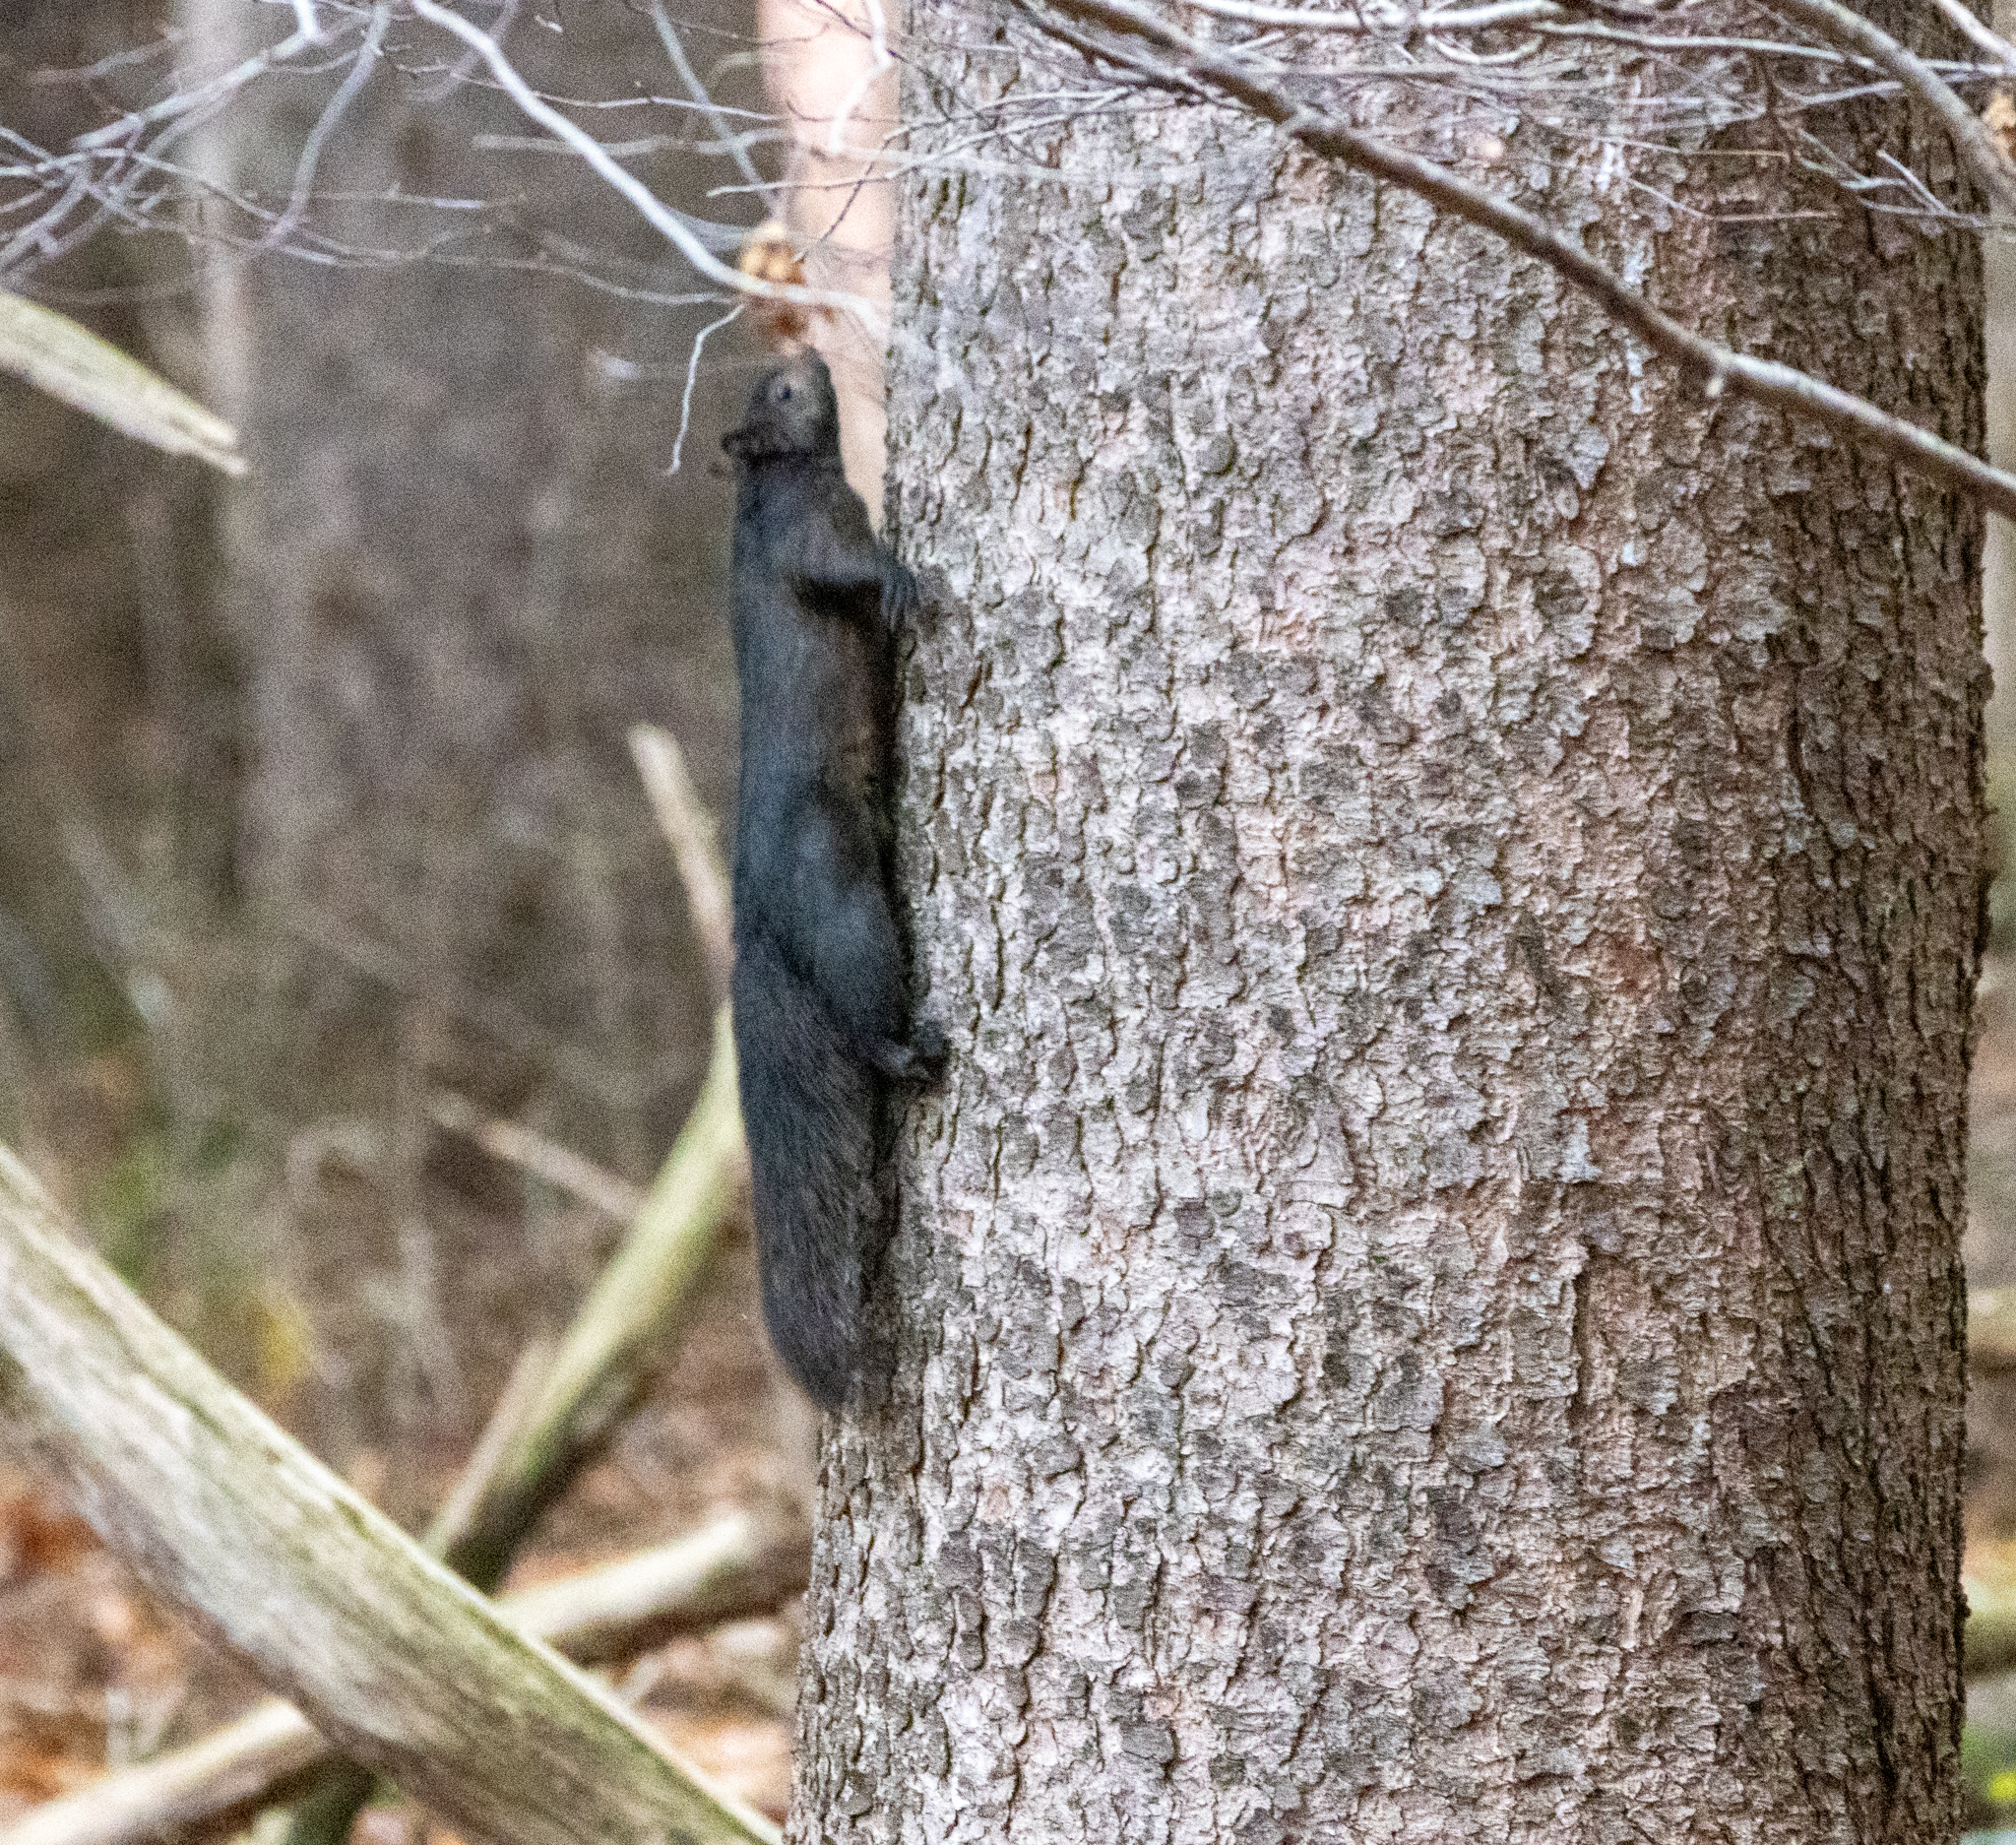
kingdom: Animalia
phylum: Chordata
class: Mammalia
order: Rodentia
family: Sciuridae
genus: Sciurus
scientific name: Sciurus carolinensis
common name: Eastern gray squirrel
